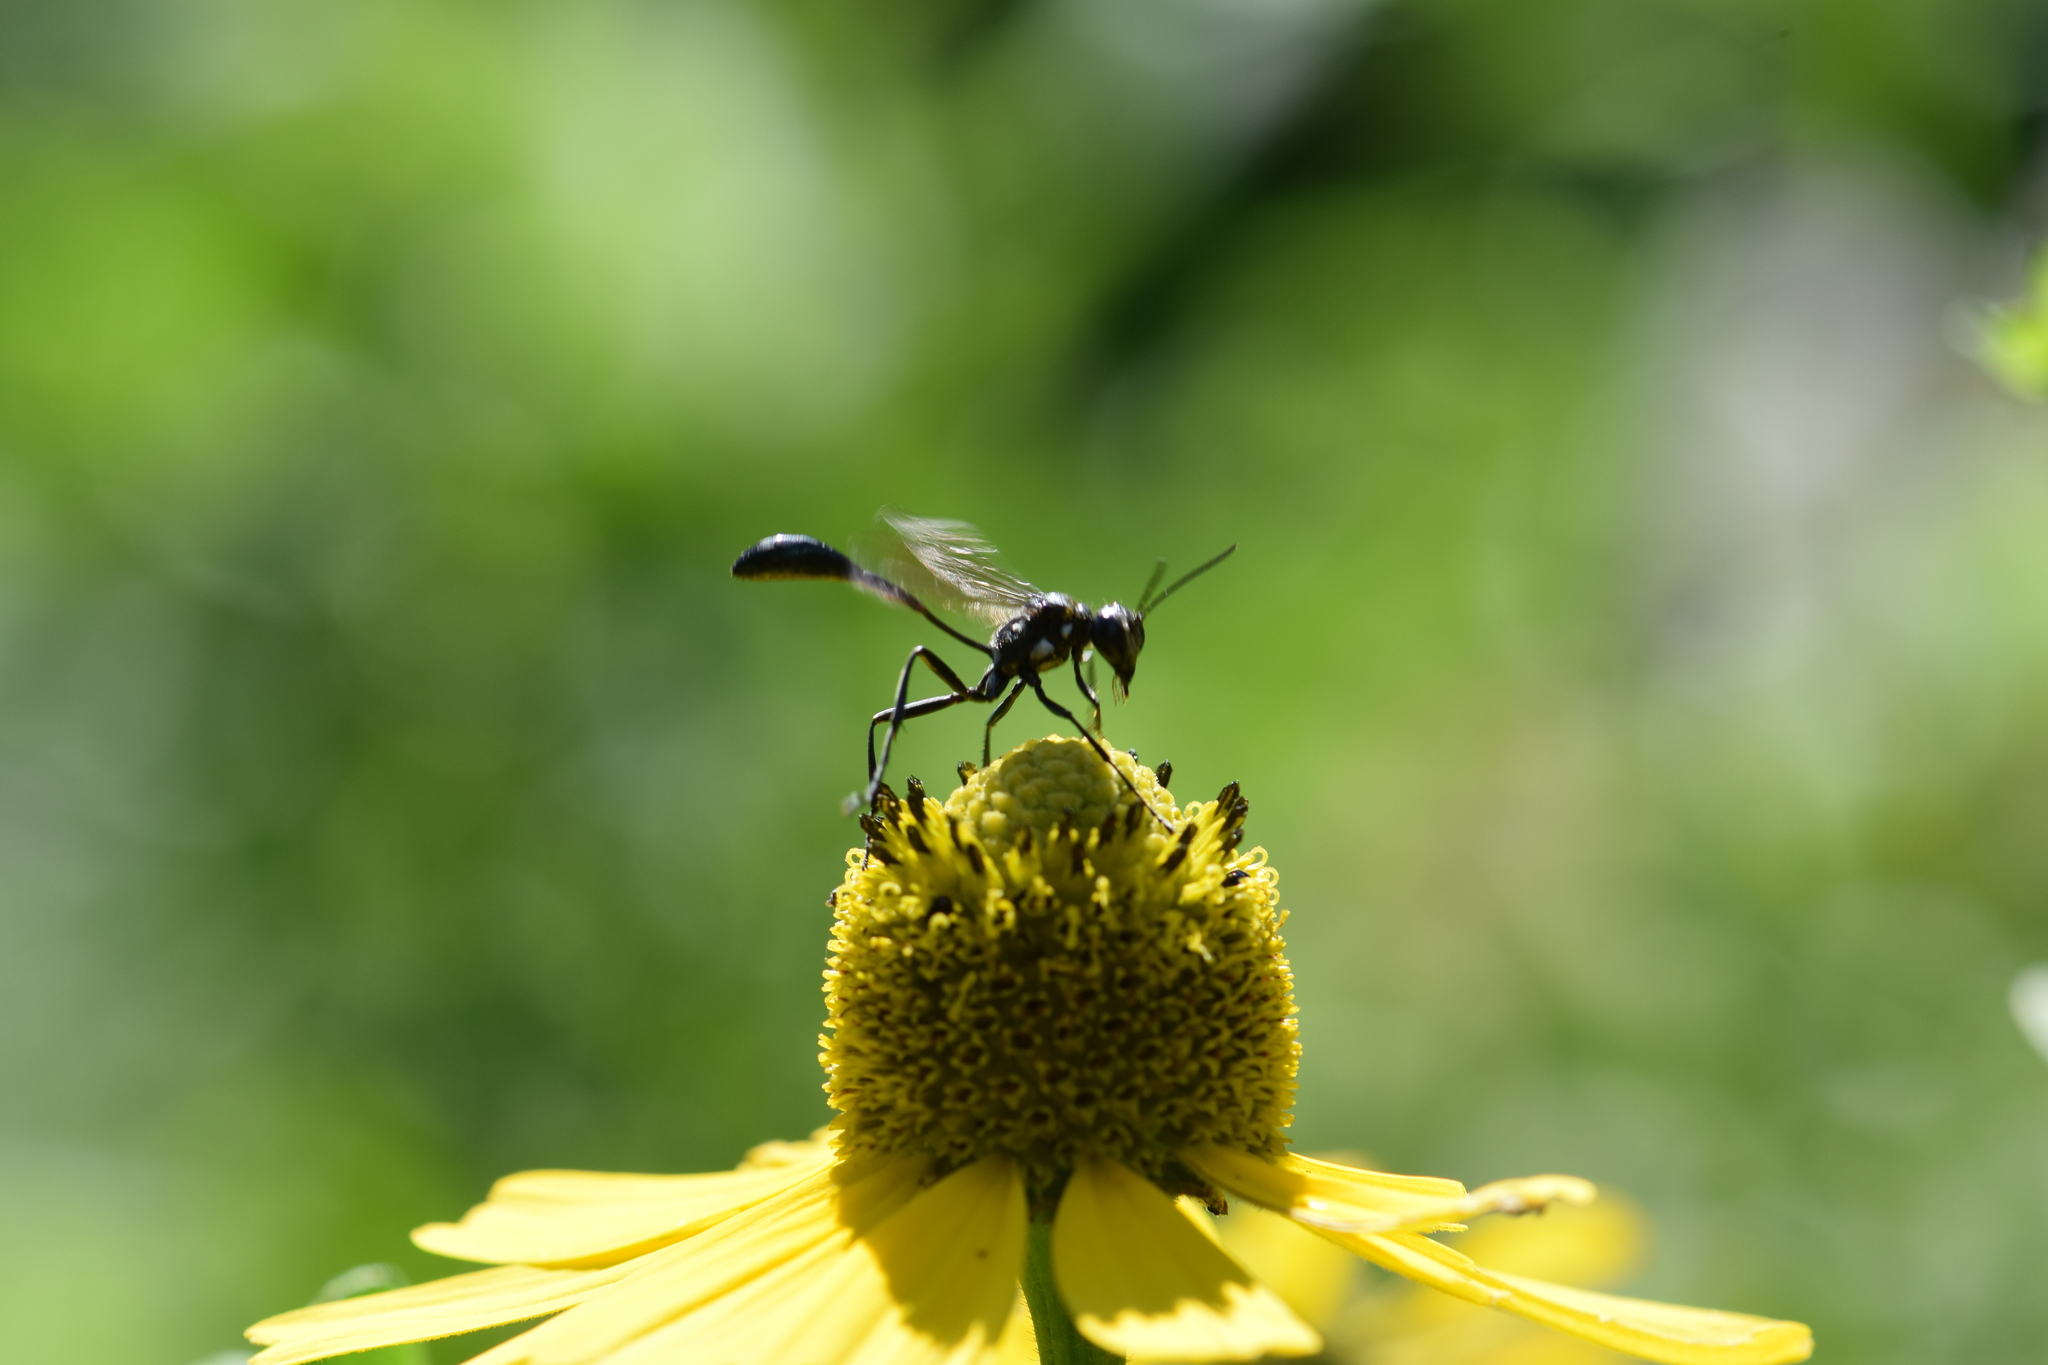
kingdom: Animalia
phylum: Arthropoda
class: Insecta
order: Hymenoptera
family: Sphecidae
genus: Eremnophila
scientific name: Eremnophila aureonotata
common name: Gold-marked thread-waisted wasp
